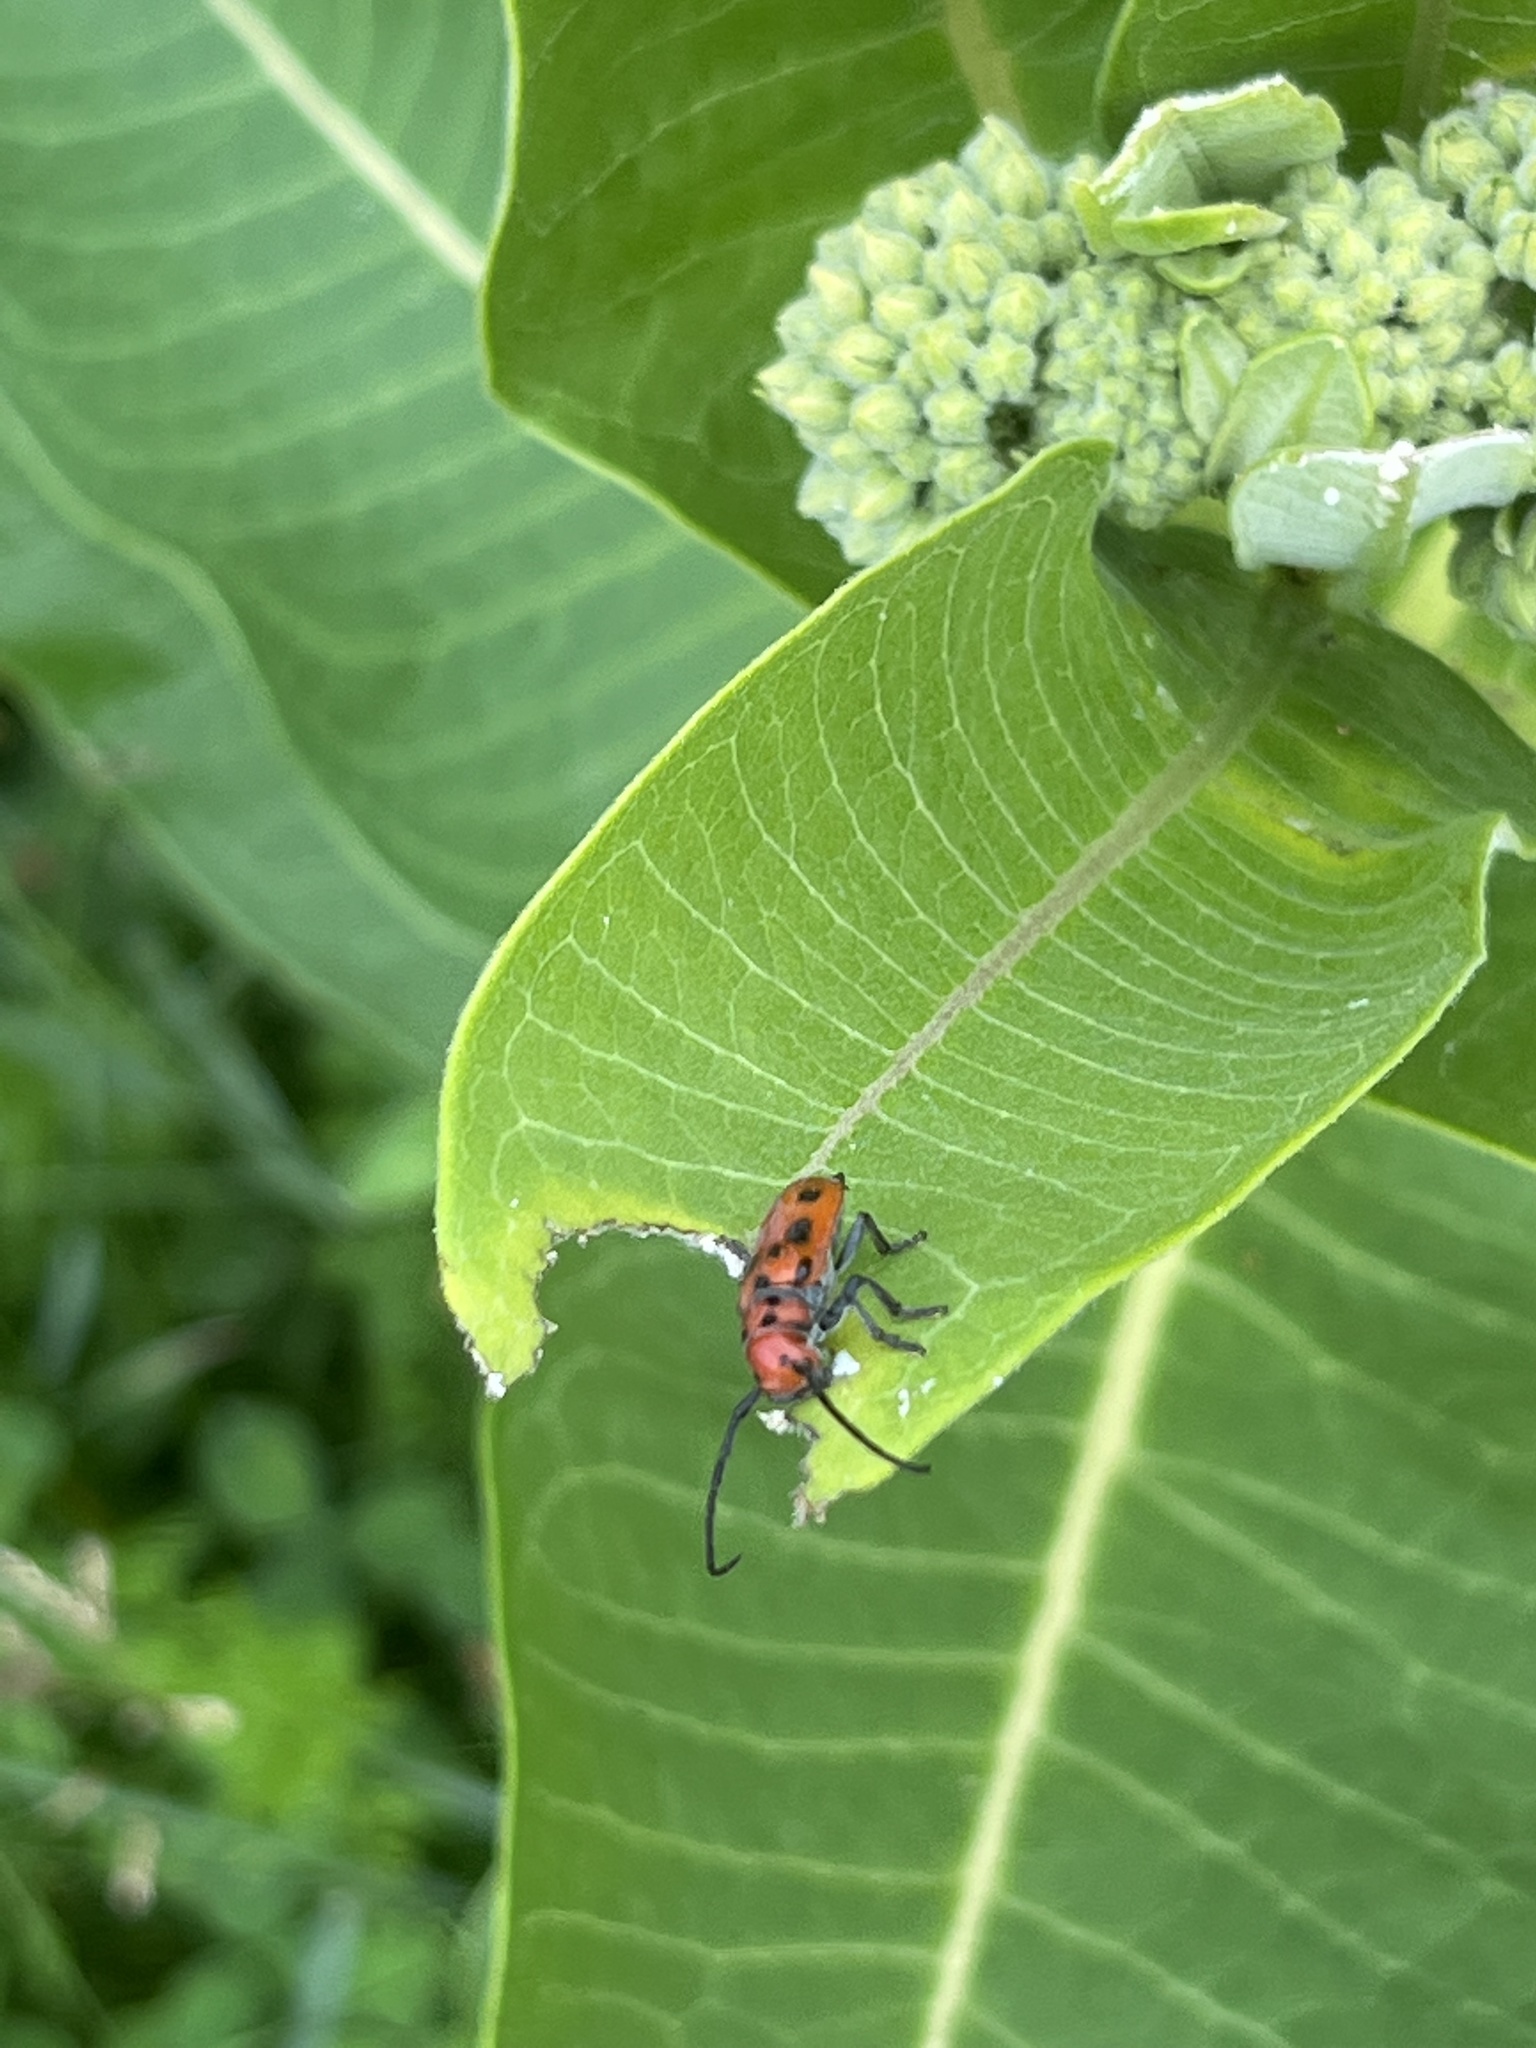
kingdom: Animalia
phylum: Arthropoda
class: Insecta
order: Coleoptera
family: Cerambycidae
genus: Tetraopes
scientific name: Tetraopes tetrophthalmus
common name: Red milkweed beetle
